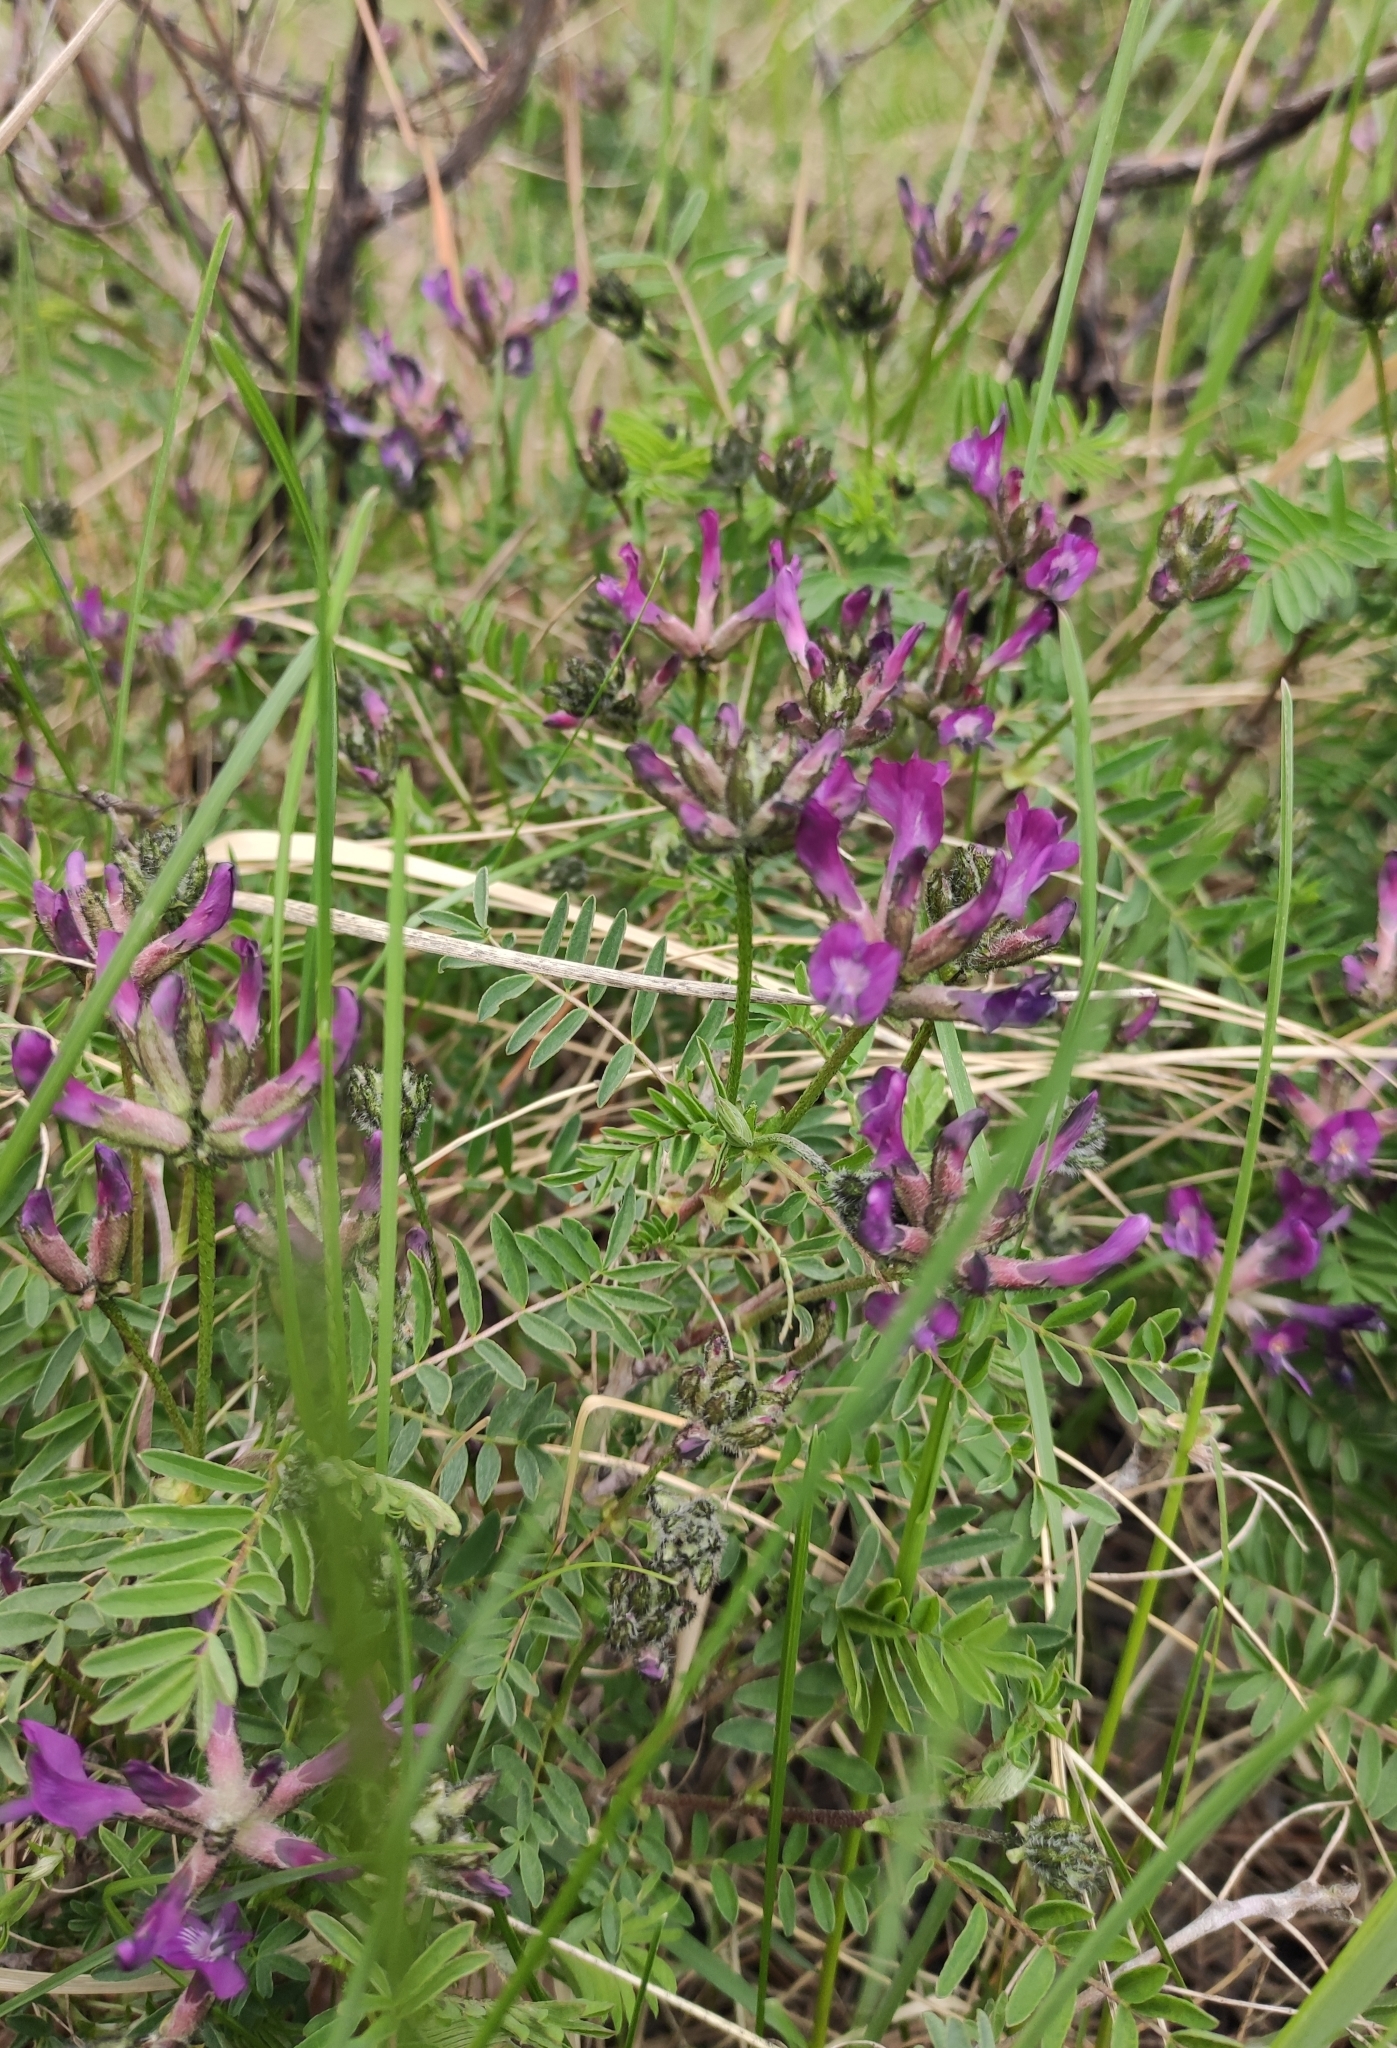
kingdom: Plantae
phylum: Tracheophyta
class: Magnoliopsida
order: Fabales
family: Fabaceae
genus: Astragalus
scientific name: Astragalus syriacus
